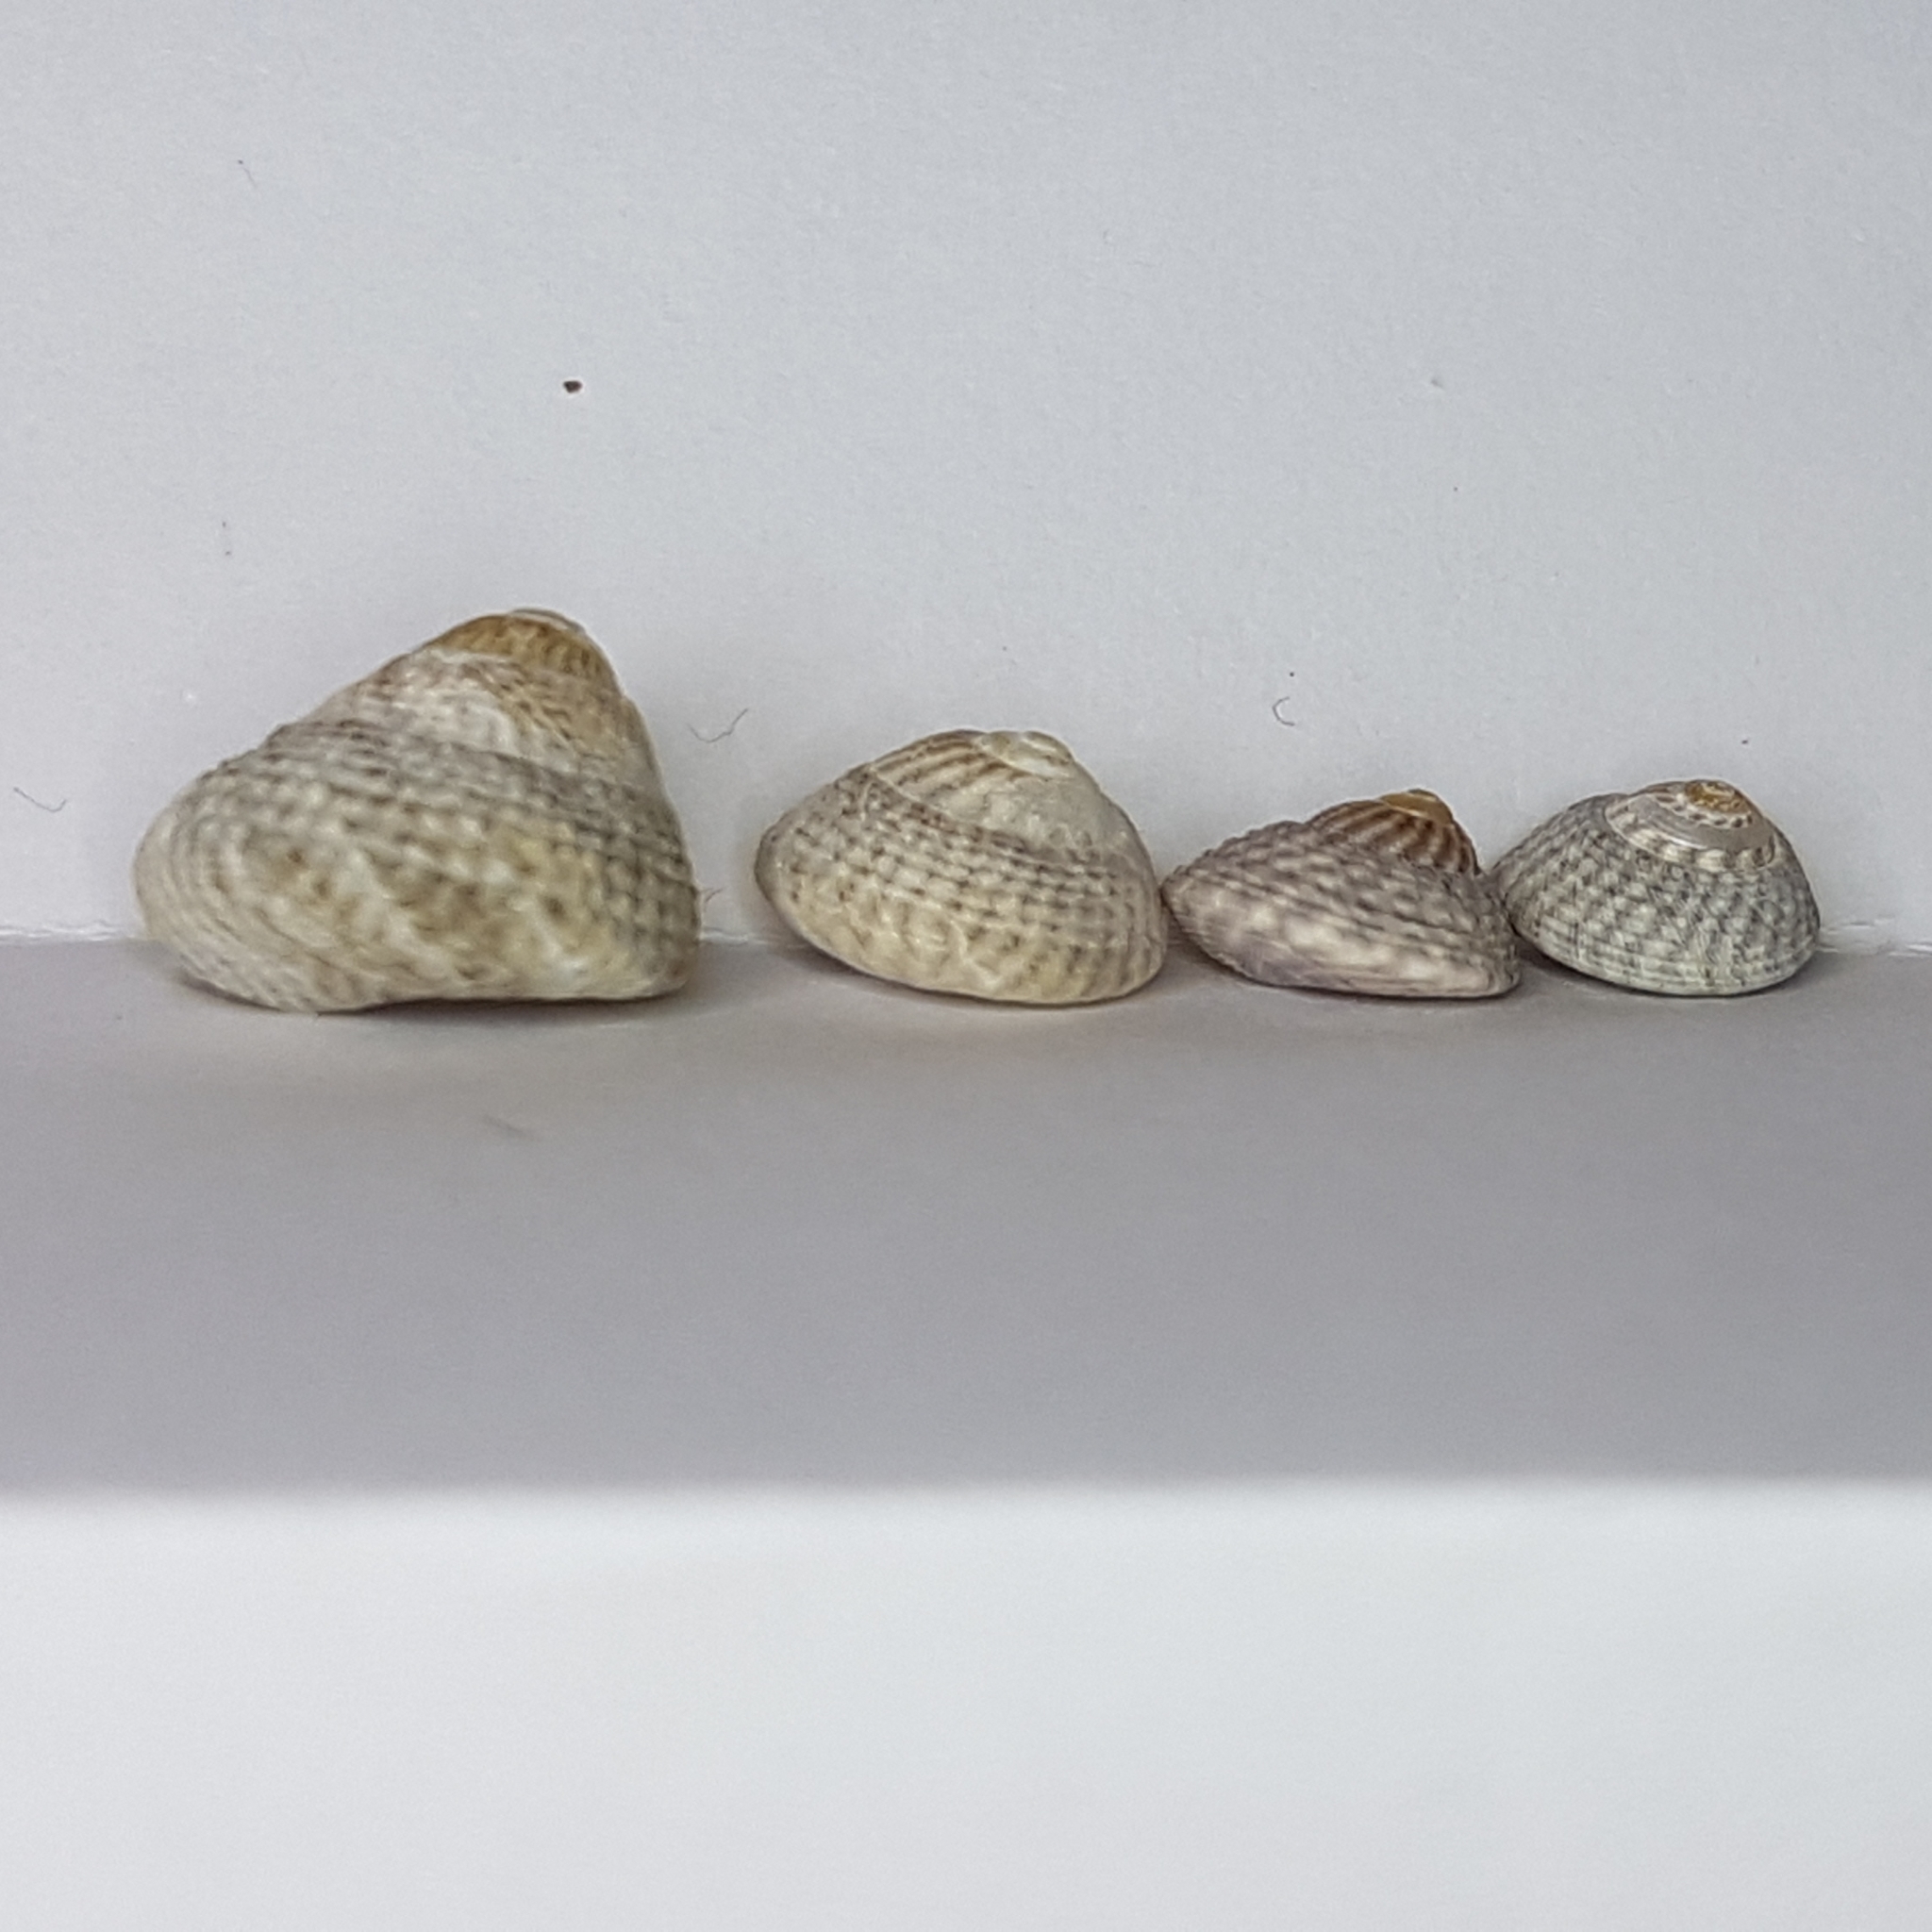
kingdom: Animalia
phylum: Mollusca
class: Gastropoda
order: Trochida
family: Trochidae
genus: Steromphala
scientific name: Steromphala cineraria
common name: Grey top shell
